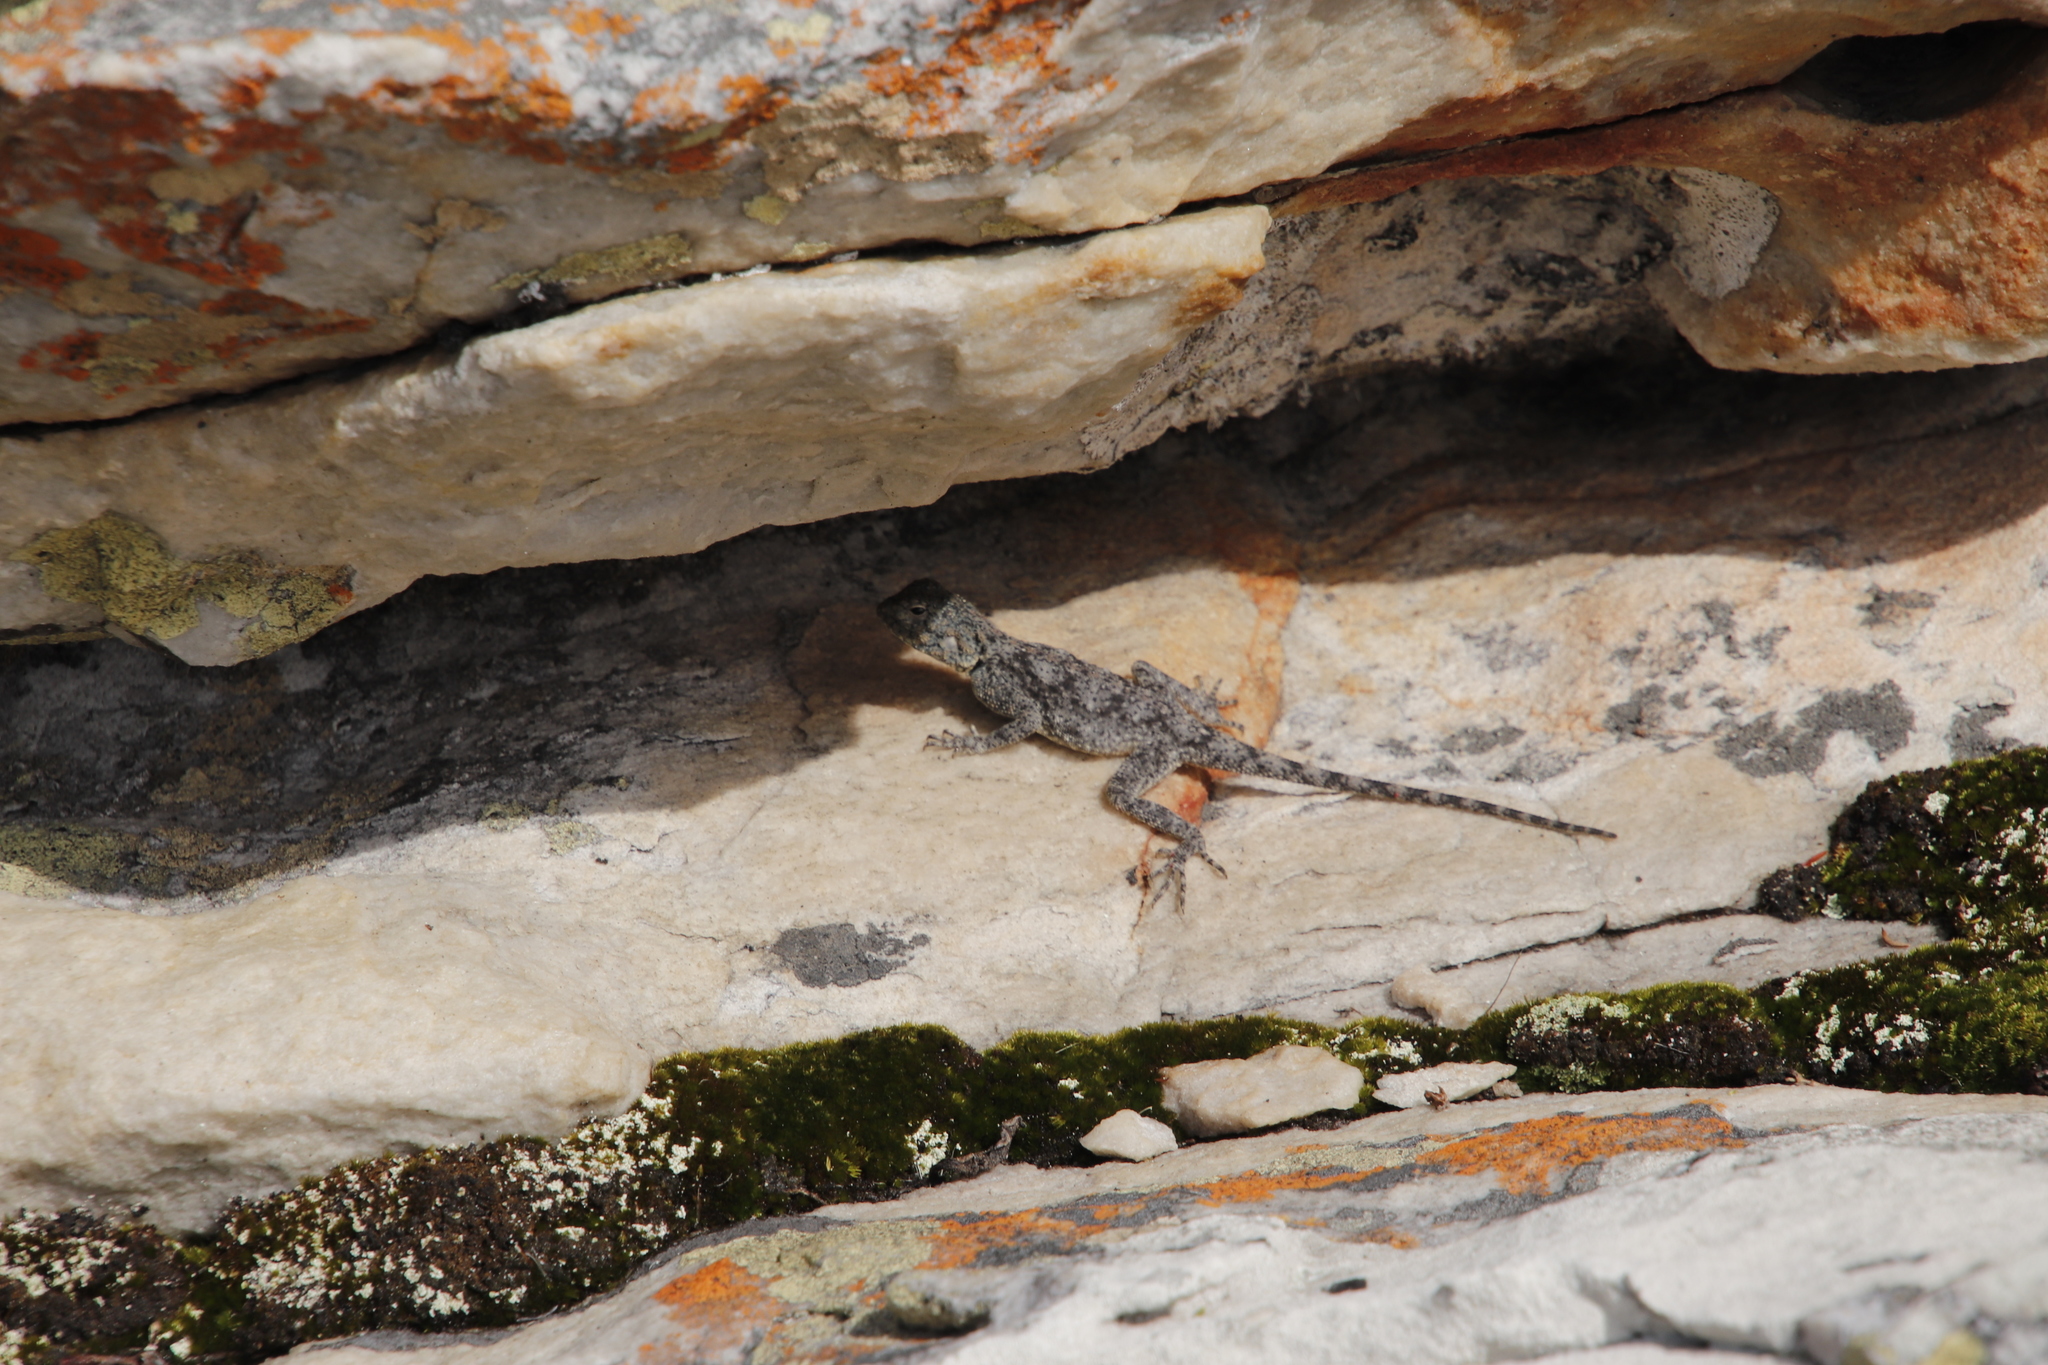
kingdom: Animalia
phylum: Chordata
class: Squamata
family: Agamidae
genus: Agama
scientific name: Agama atra
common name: Southern african rock agama
